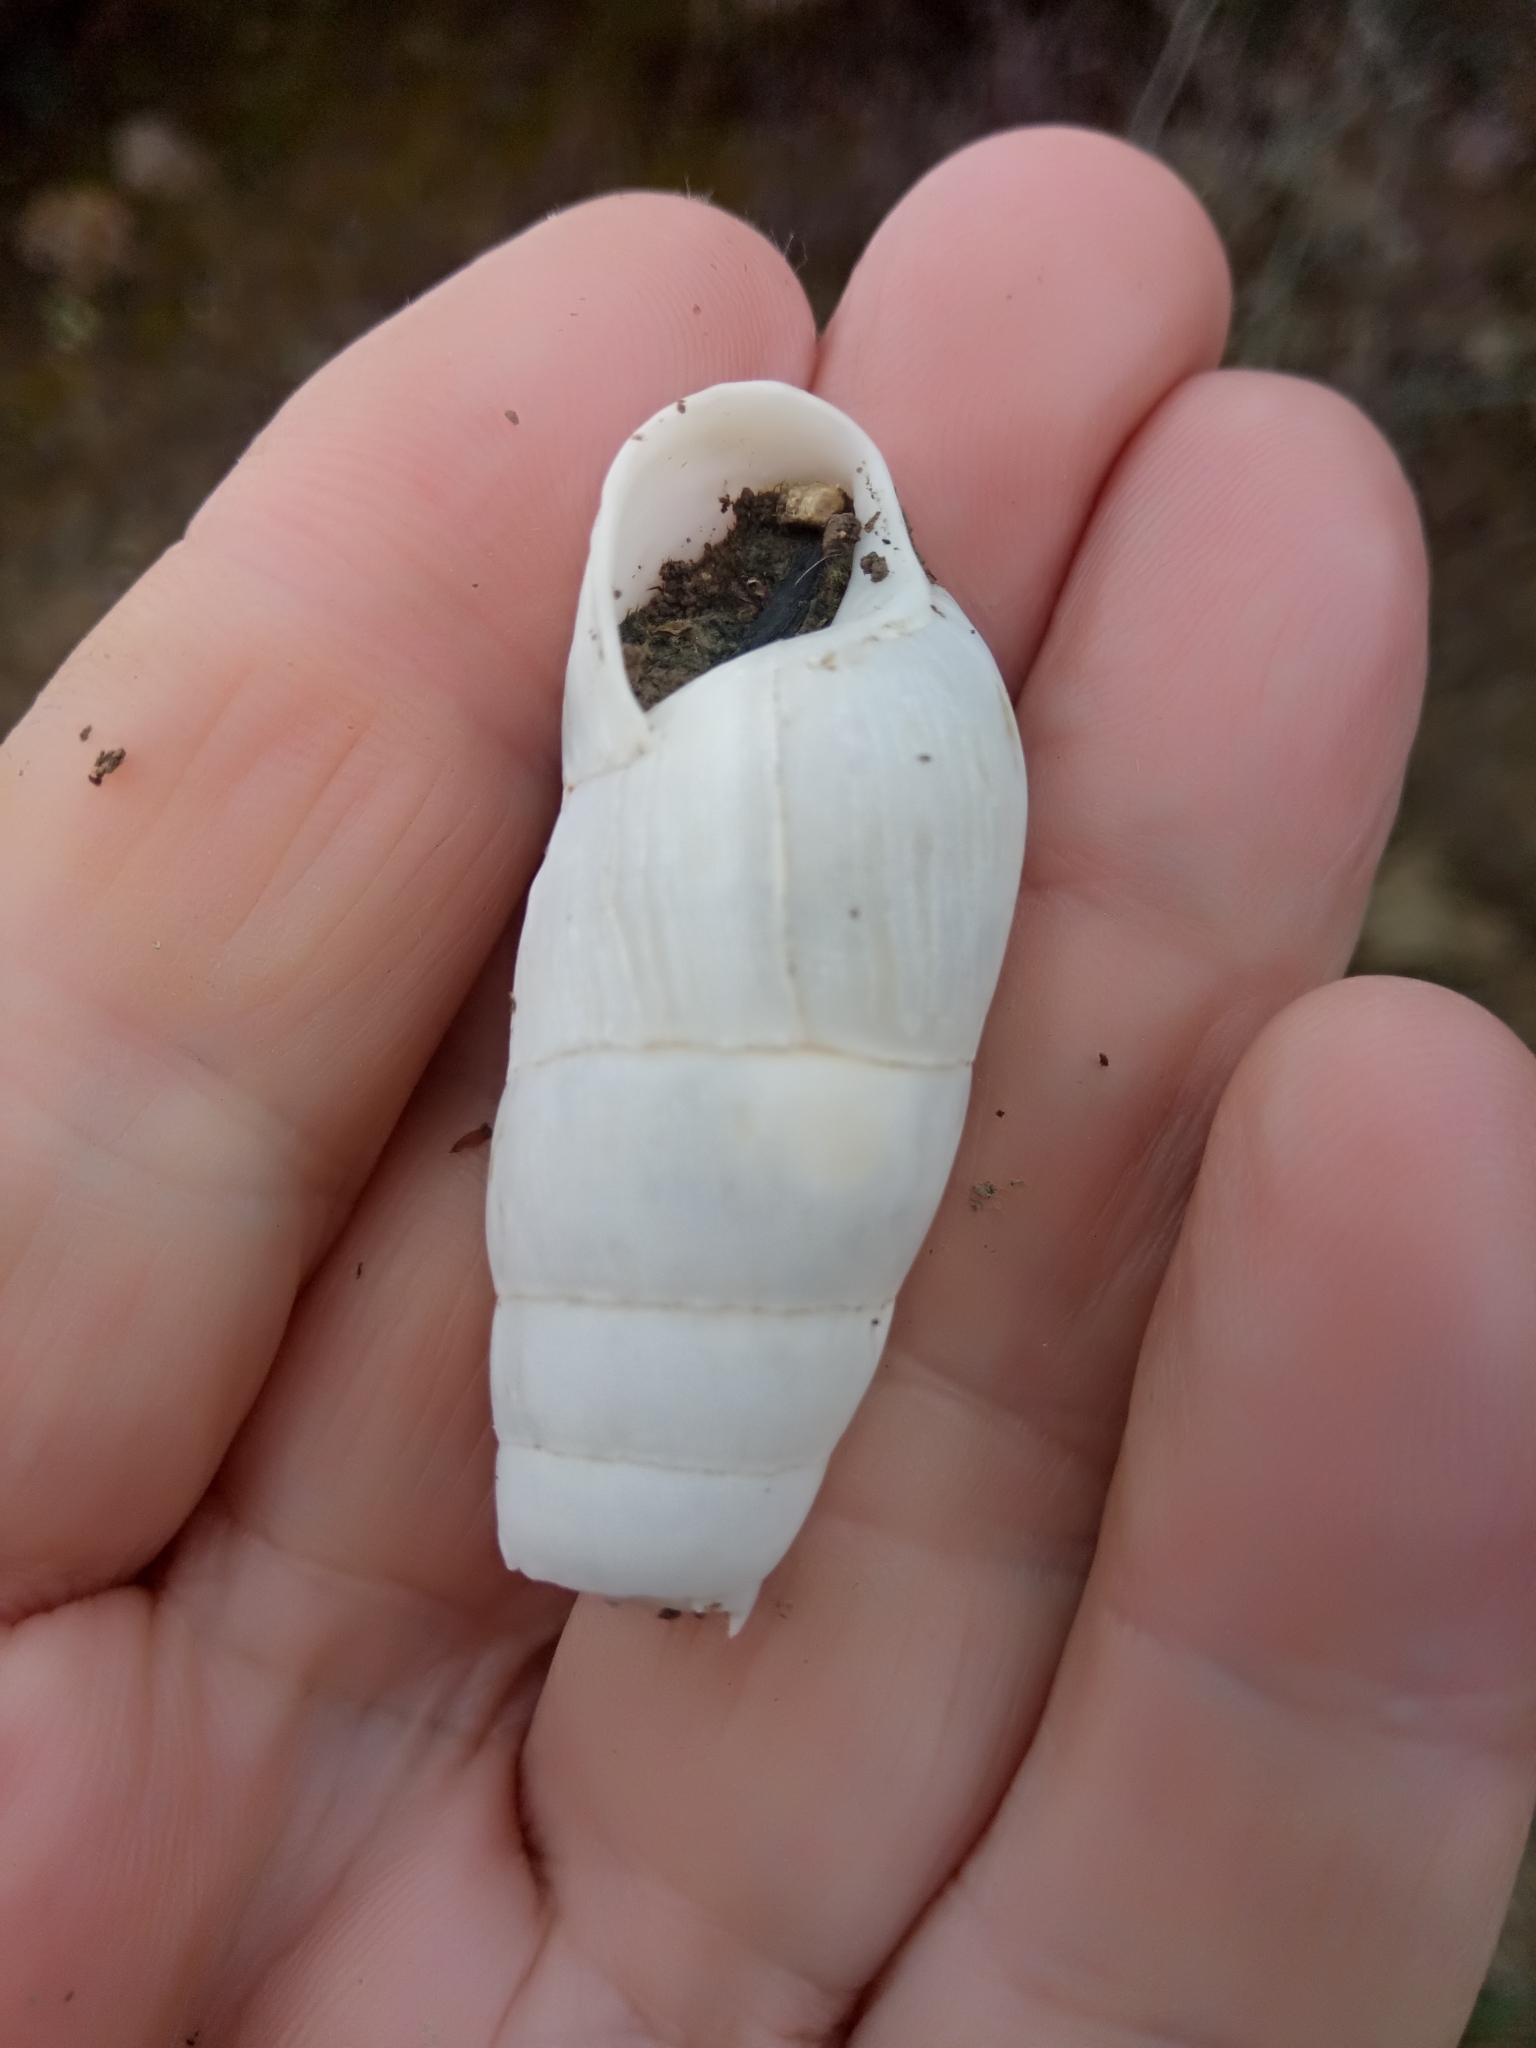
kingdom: Animalia
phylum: Mollusca
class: Gastropoda
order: Stylommatophora
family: Achatinidae
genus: Rumina
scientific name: Rumina decollata
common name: Decollate snail
